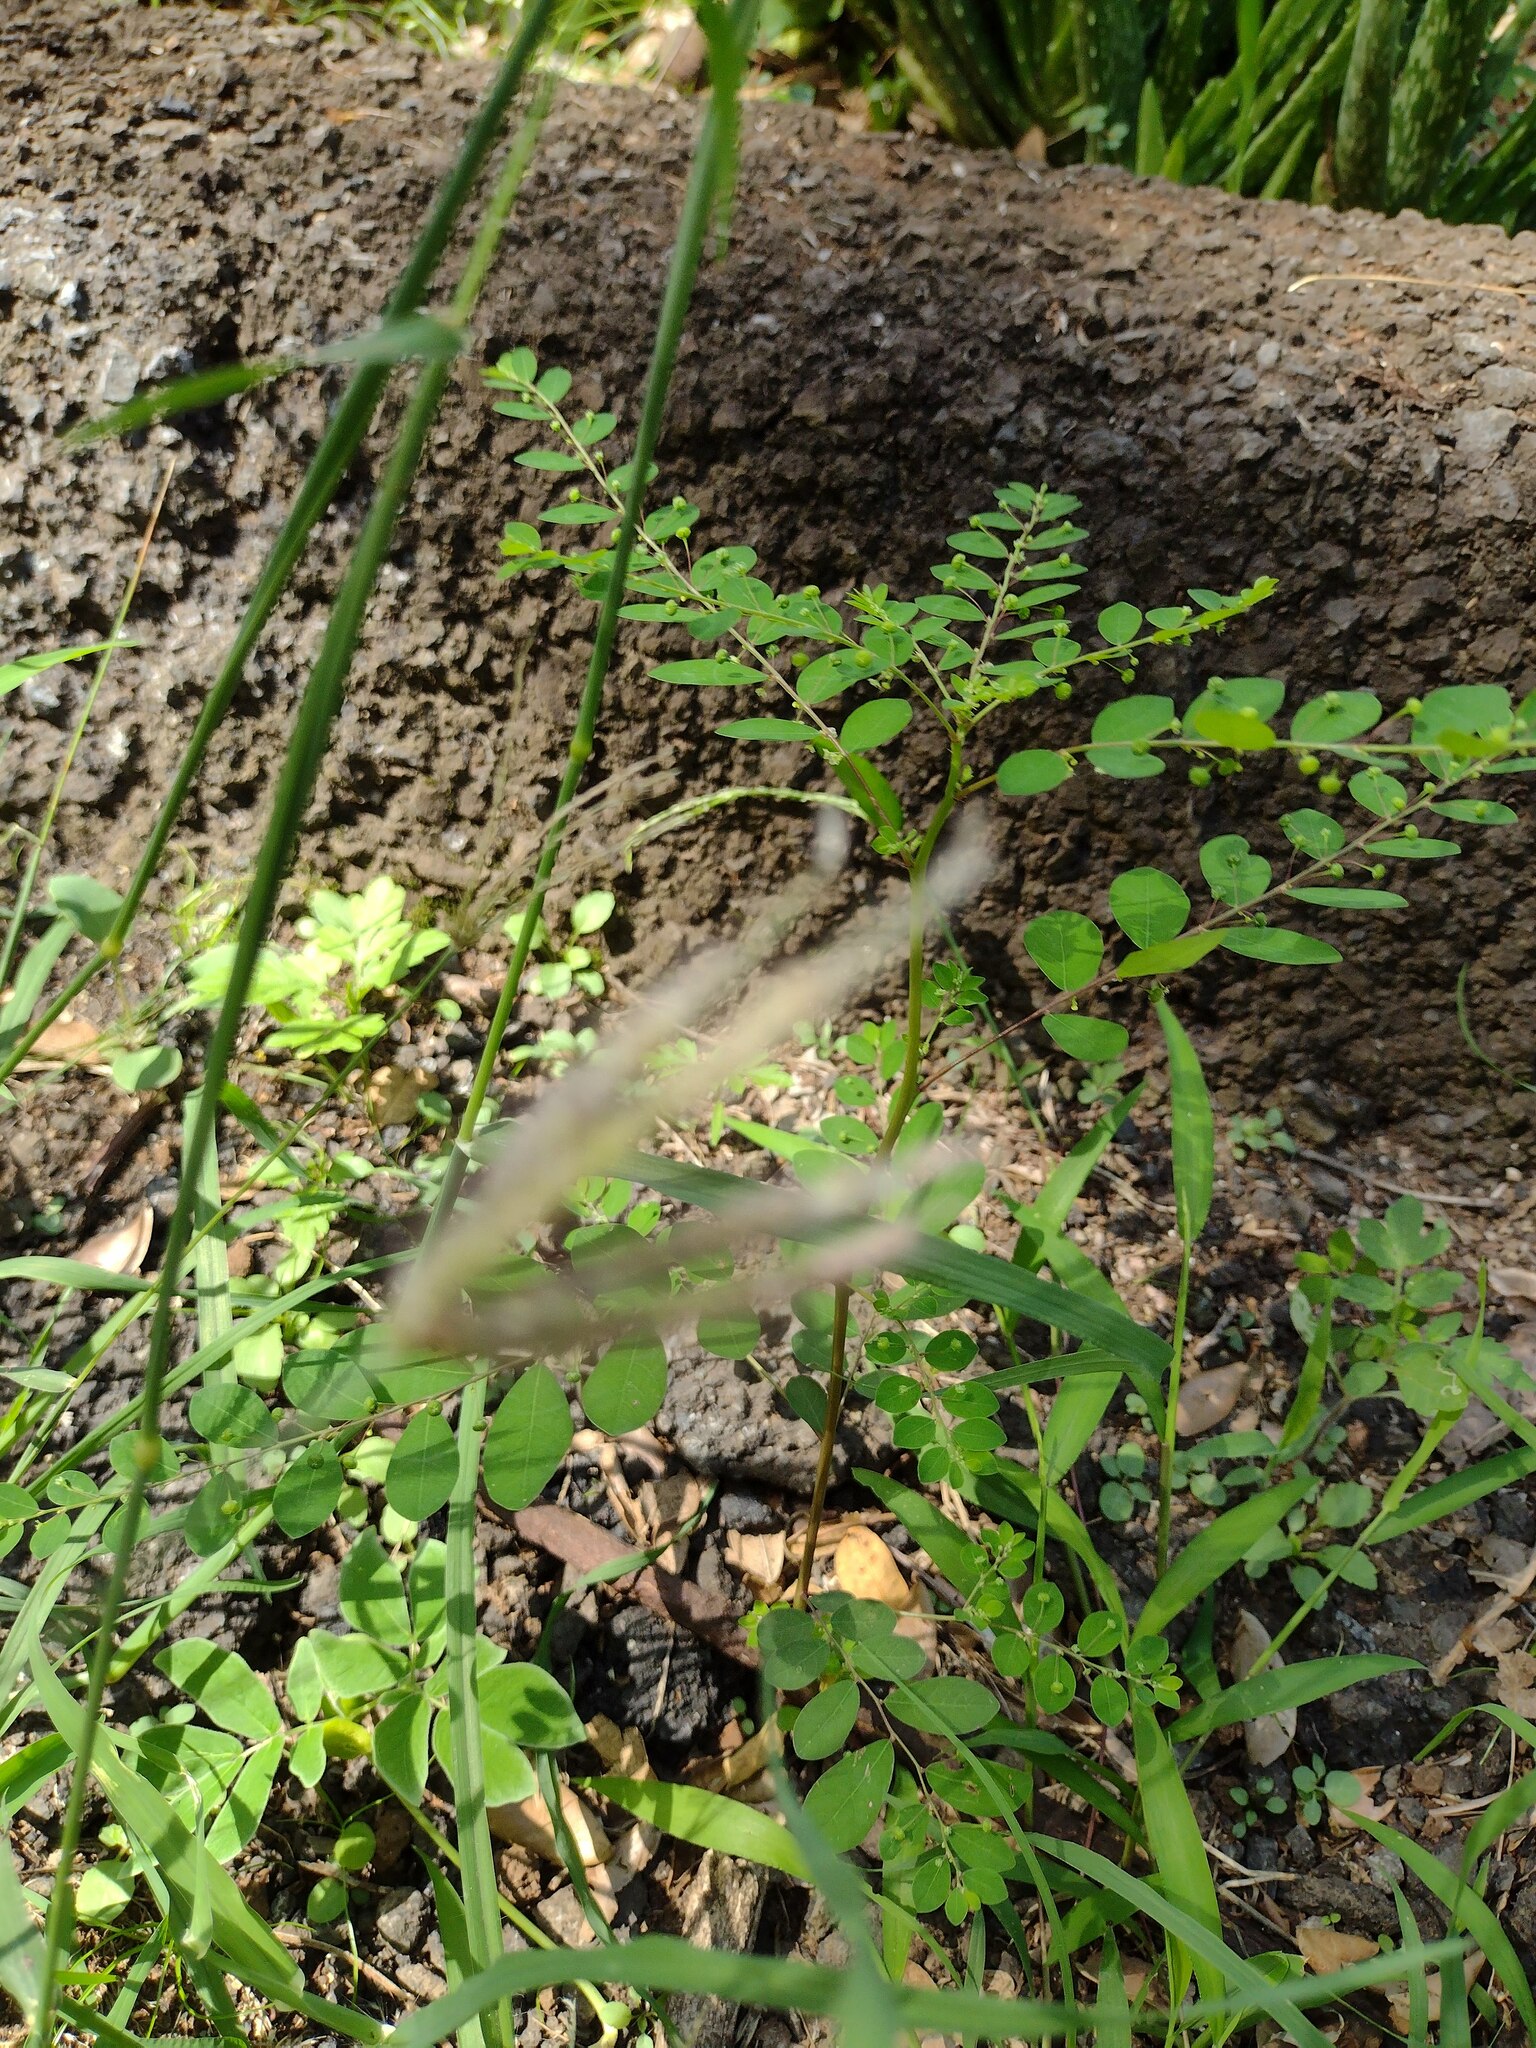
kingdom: Plantae
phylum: Tracheophyta
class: Magnoliopsida
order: Malpighiales
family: Phyllanthaceae
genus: Phyllanthus
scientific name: Phyllanthus tenellus
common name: Mascarene island leaf-flower
